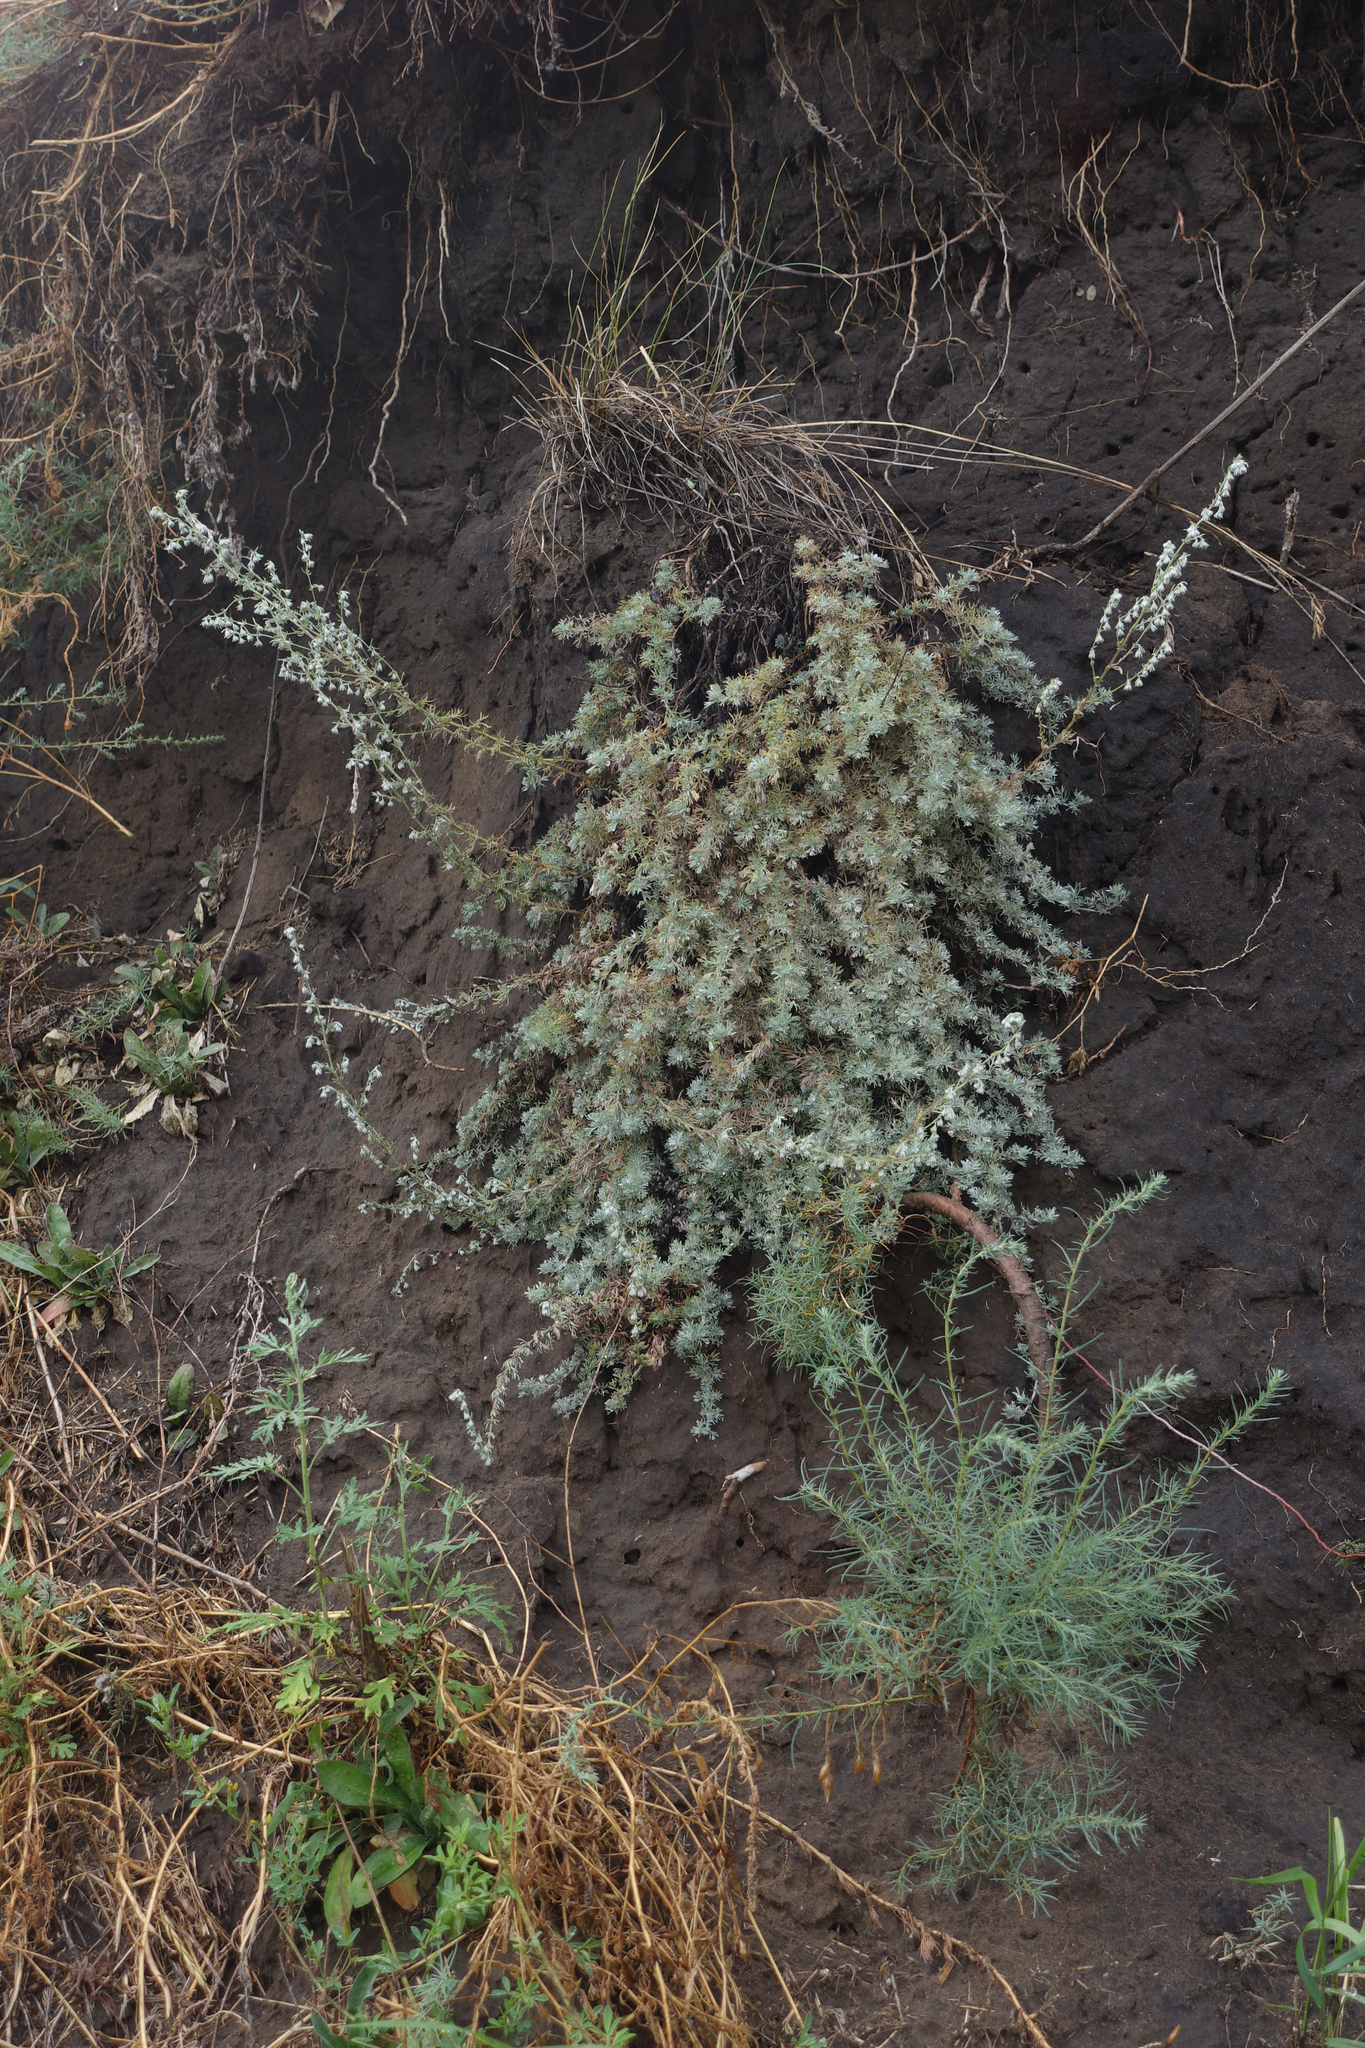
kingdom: Plantae
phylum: Tracheophyta
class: Magnoliopsida
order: Asterales
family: Asteraceae
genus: Artemisia
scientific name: Artemisia frigida
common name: Prairie sagewort
